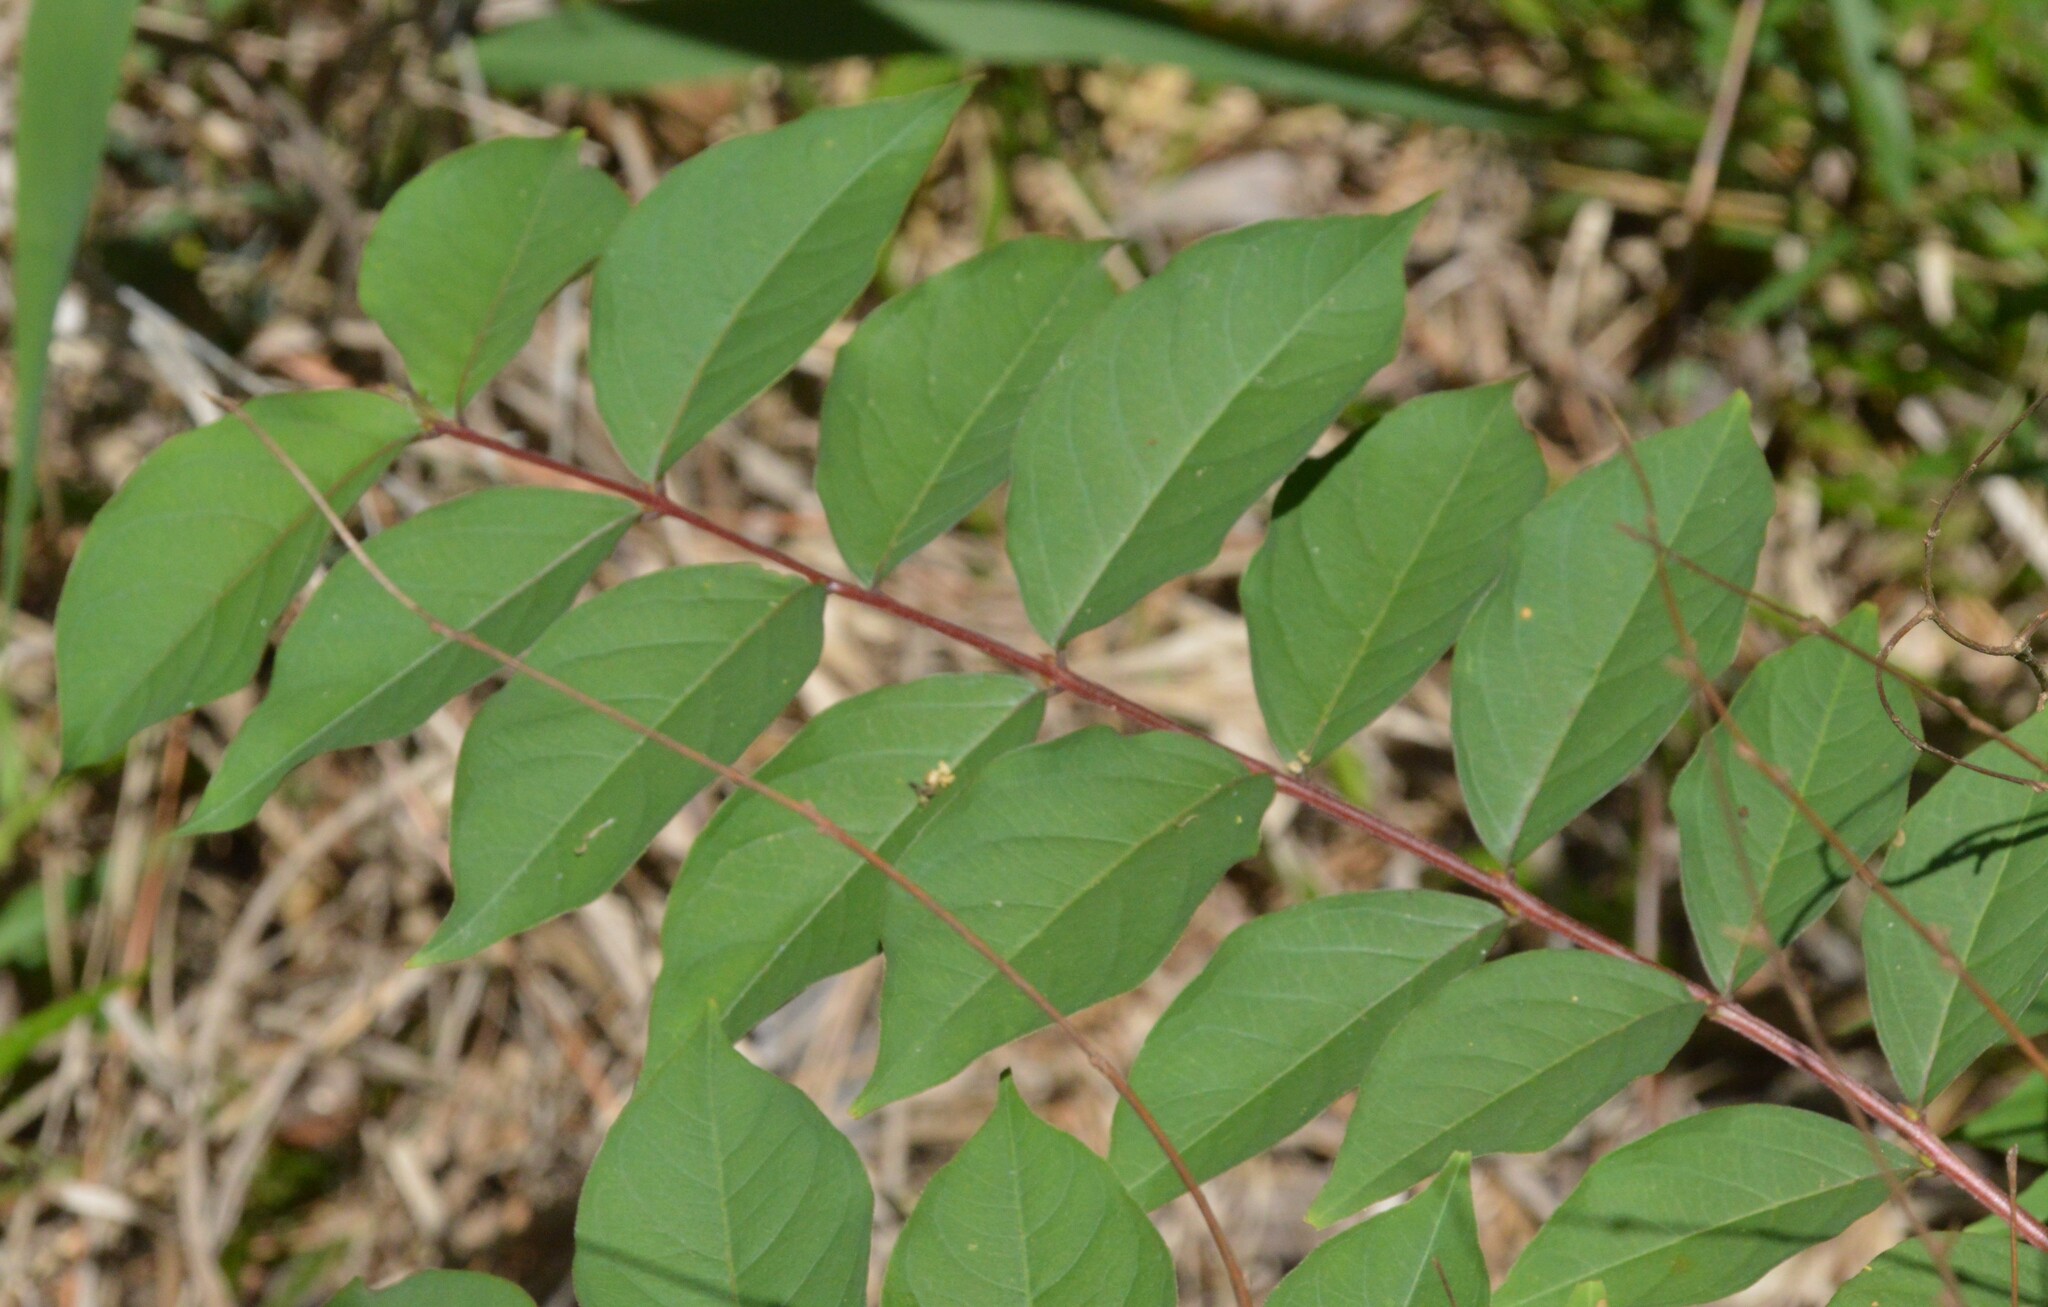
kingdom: Plantae
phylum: Tracheophyta
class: Magnoliopsida
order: Myrtales
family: Lythraceae
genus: Lagerstroemia
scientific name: Lagerstroemia indica
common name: Crape-myrtle
